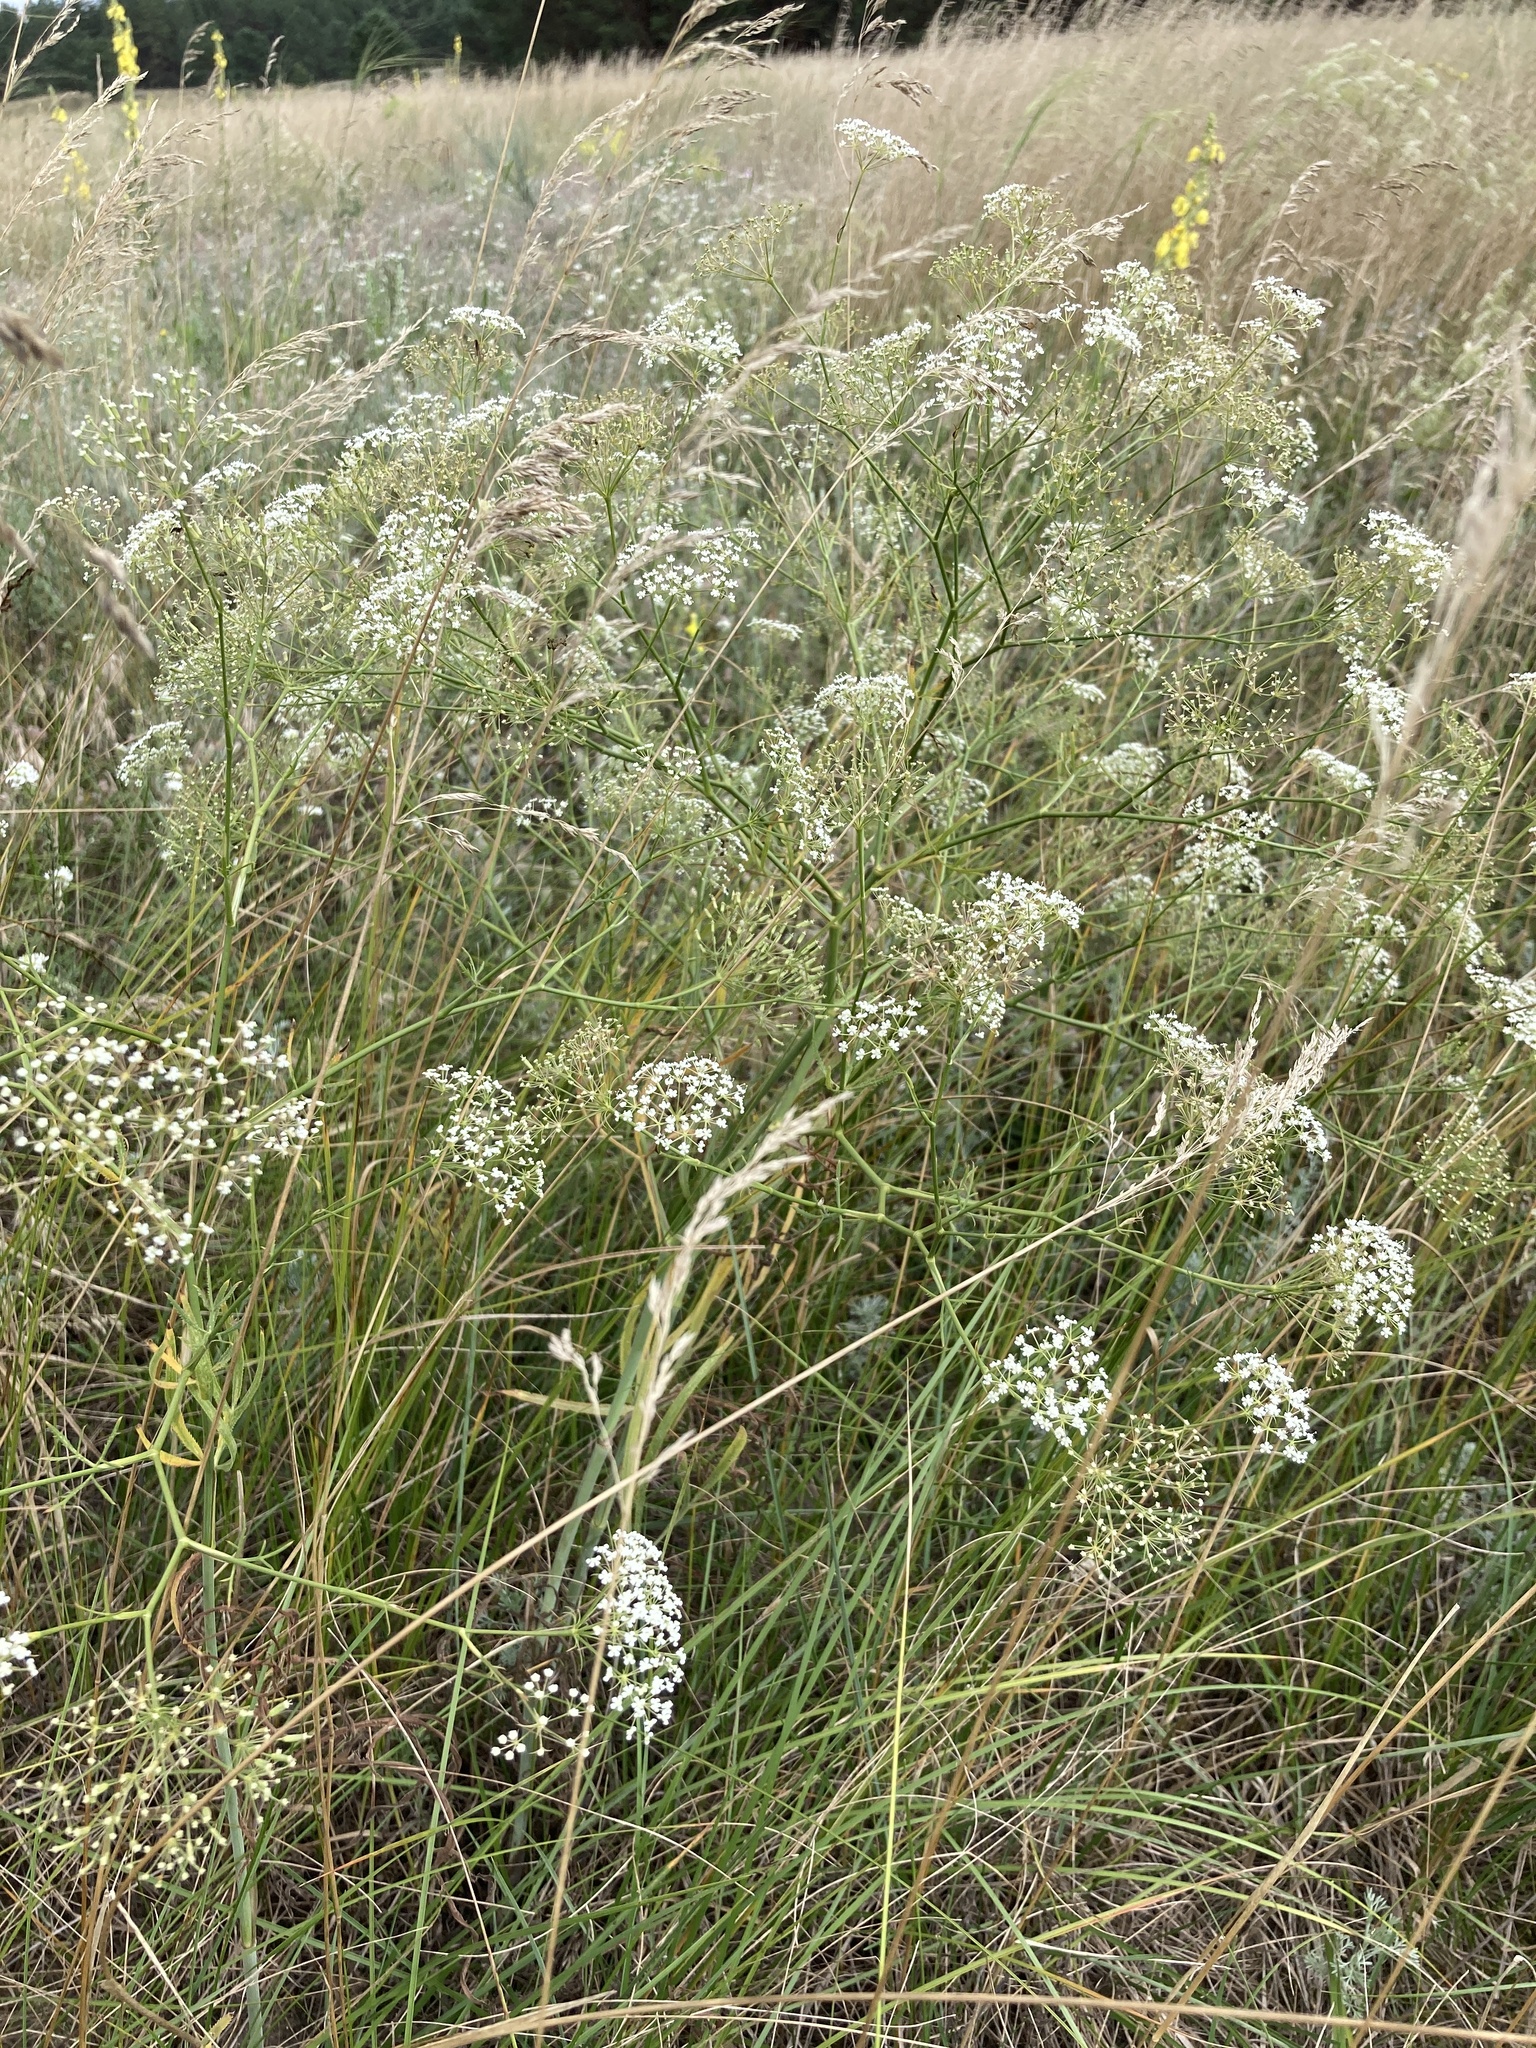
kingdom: Plantae
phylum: Tracheophyta
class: Magnoliopsida
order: Apiales
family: Apiaceae
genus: Falcaria
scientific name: Falcaria vulgaris
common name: Longleaf
